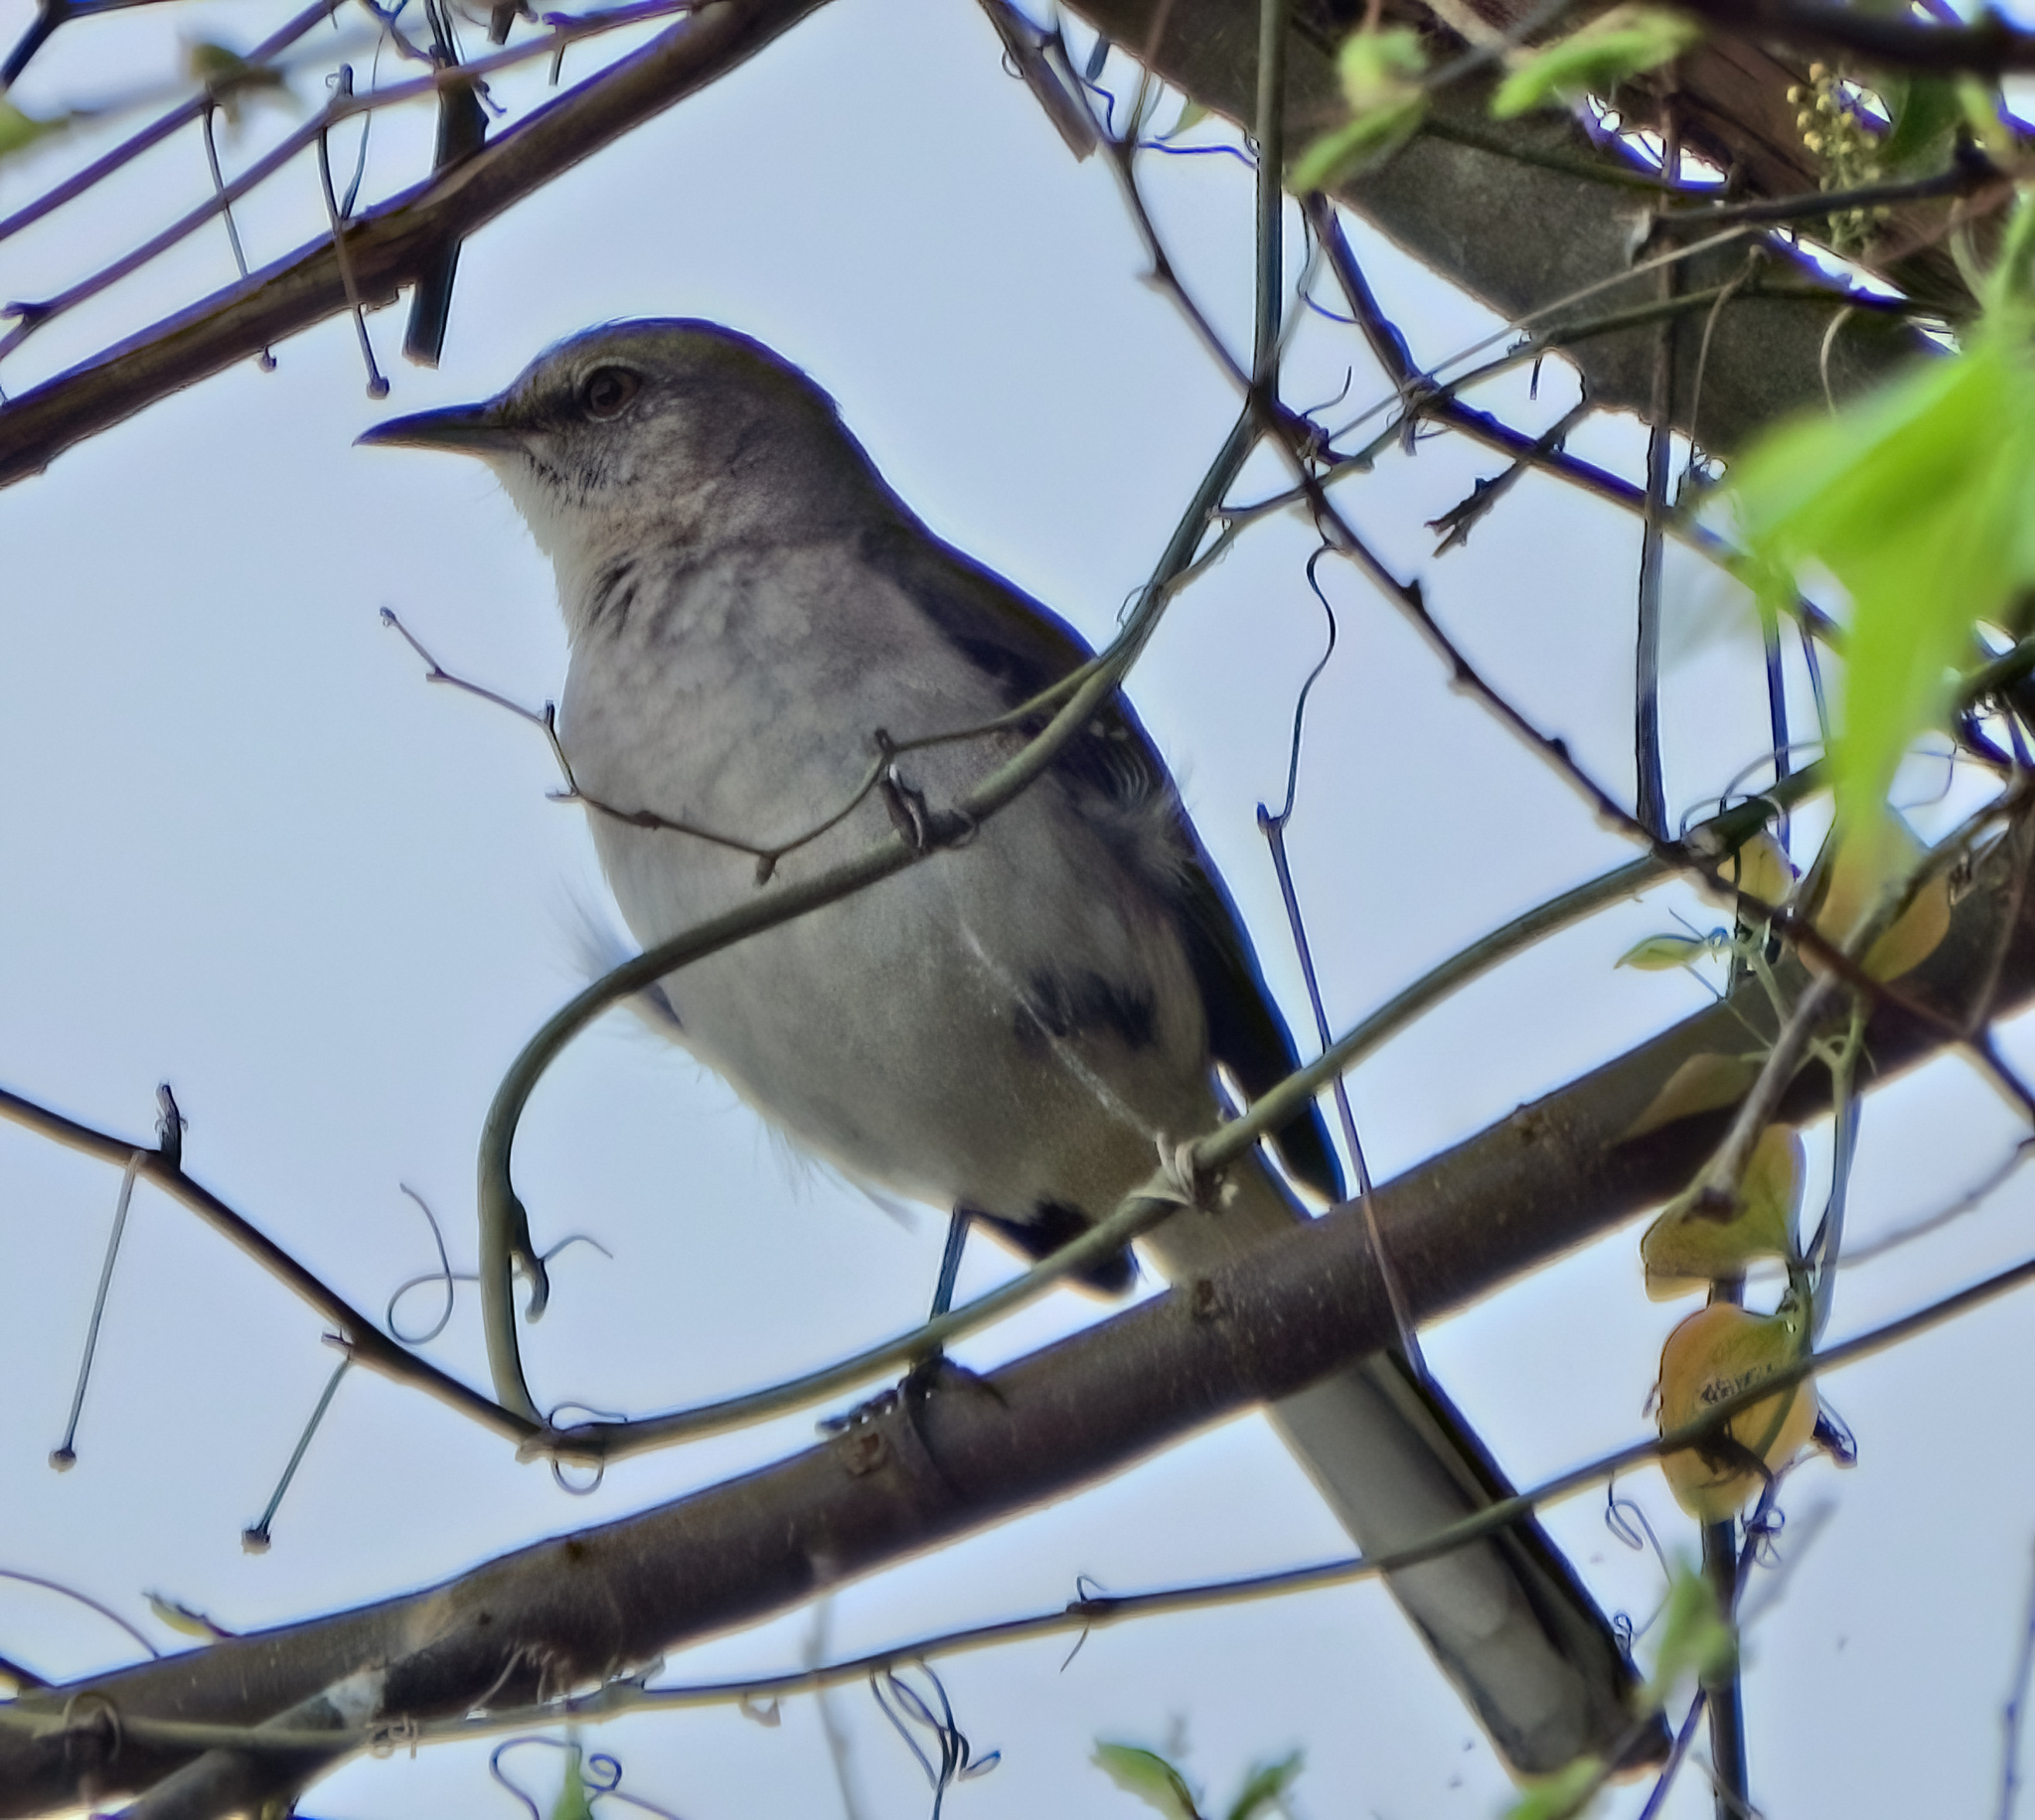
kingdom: Animalia
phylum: Chordata
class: Aves
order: Passeriformes
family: Mimidae
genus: Mimus
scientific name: Mimus polyglottos
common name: Northern mockingbird
